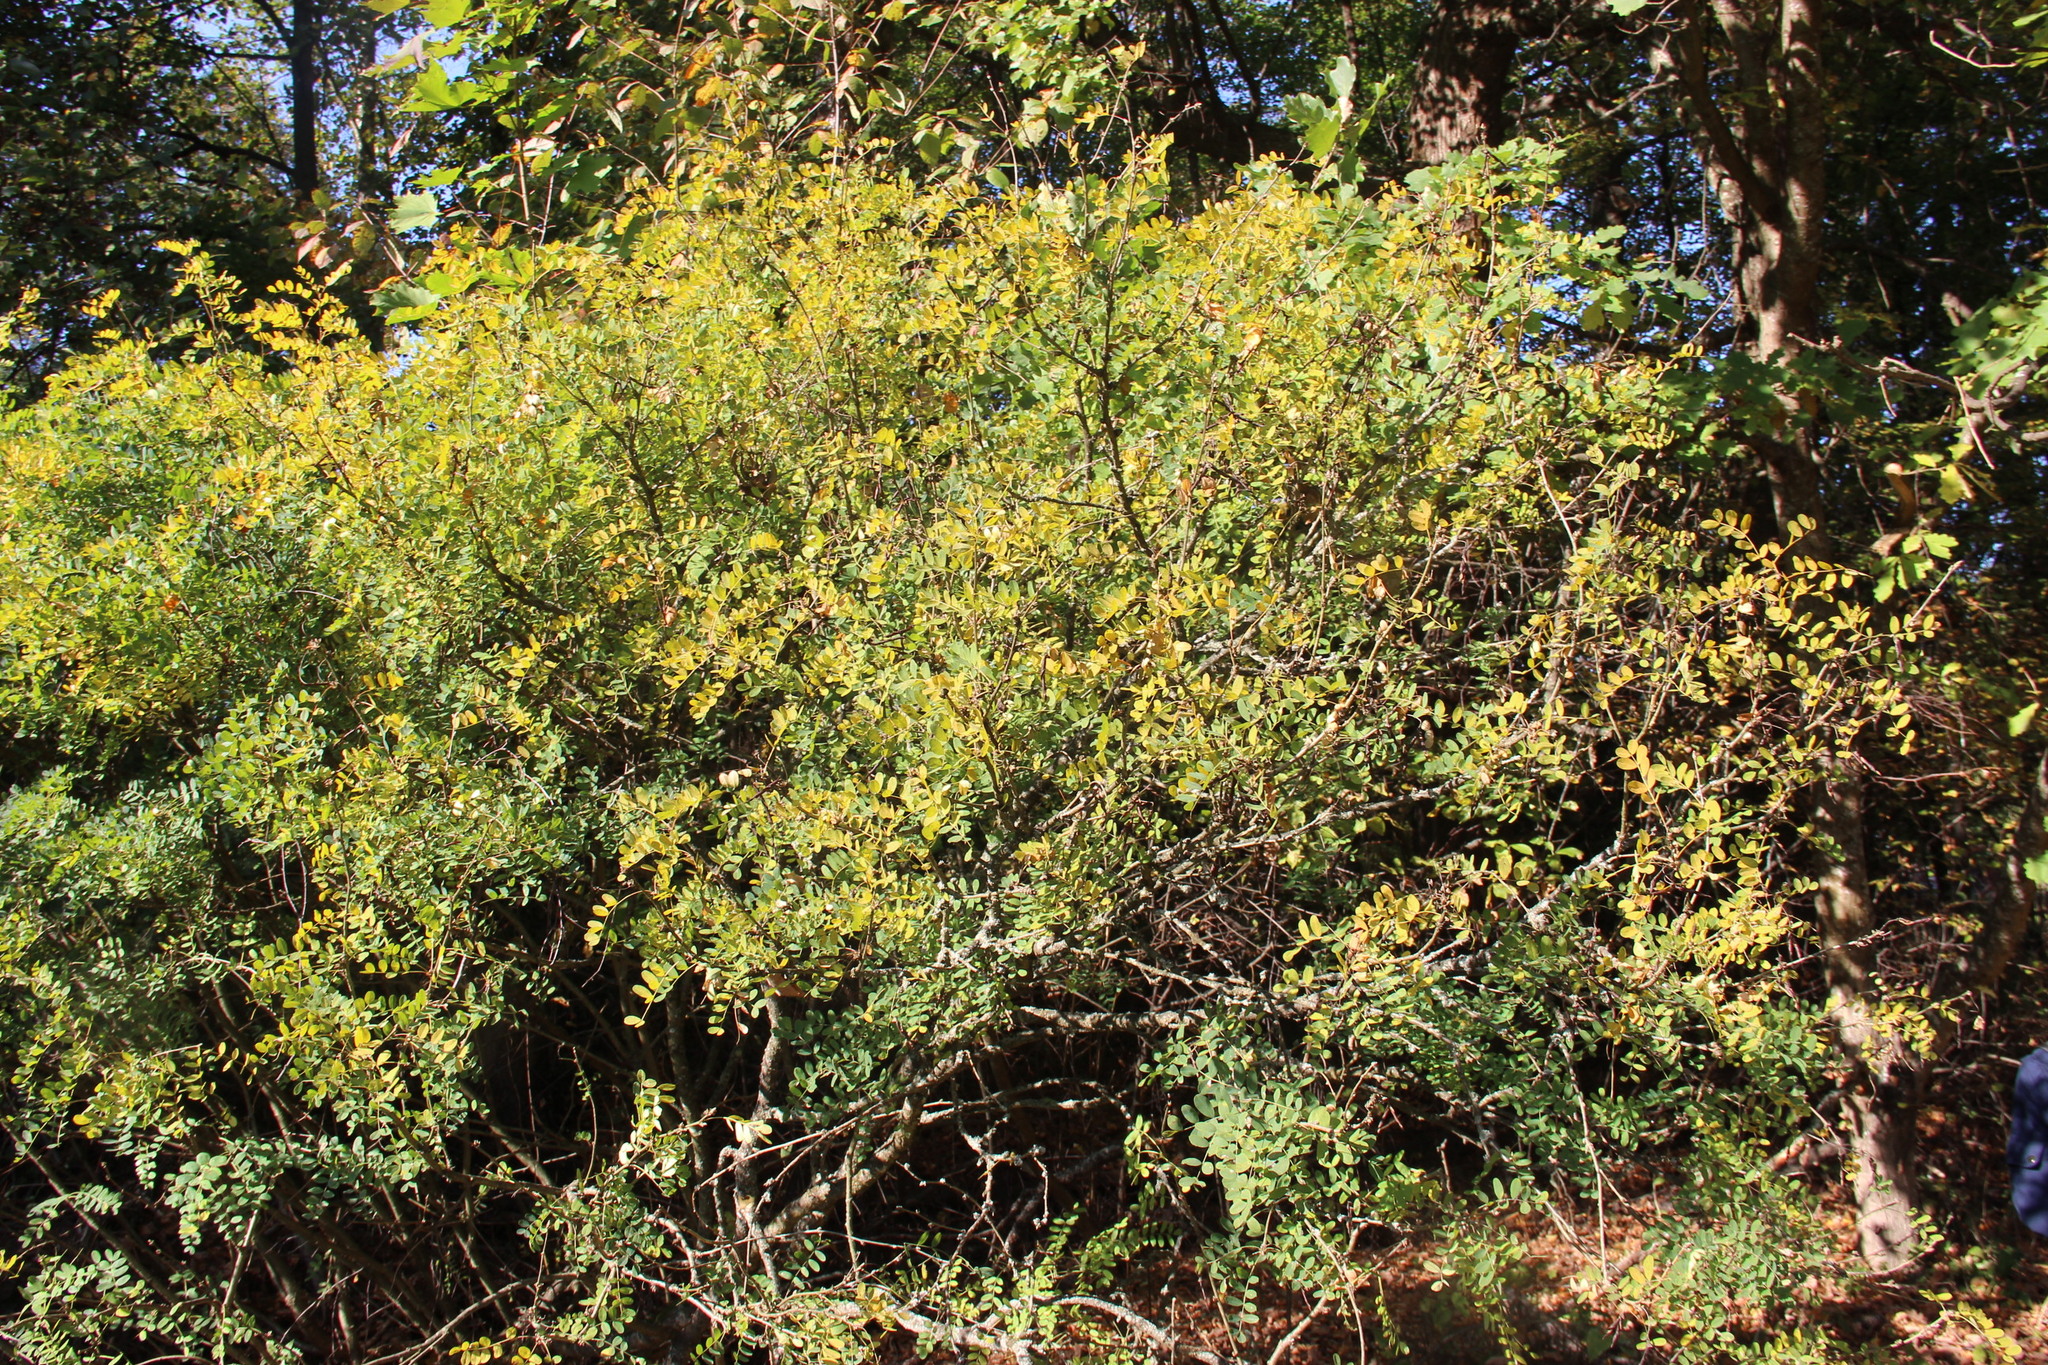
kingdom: Plantae
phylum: Tracheophyta
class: Magnoliopsida
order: Fabales
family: Fabaceae
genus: Caragana
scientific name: Caragana arborescens
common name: Siberian peashrub
